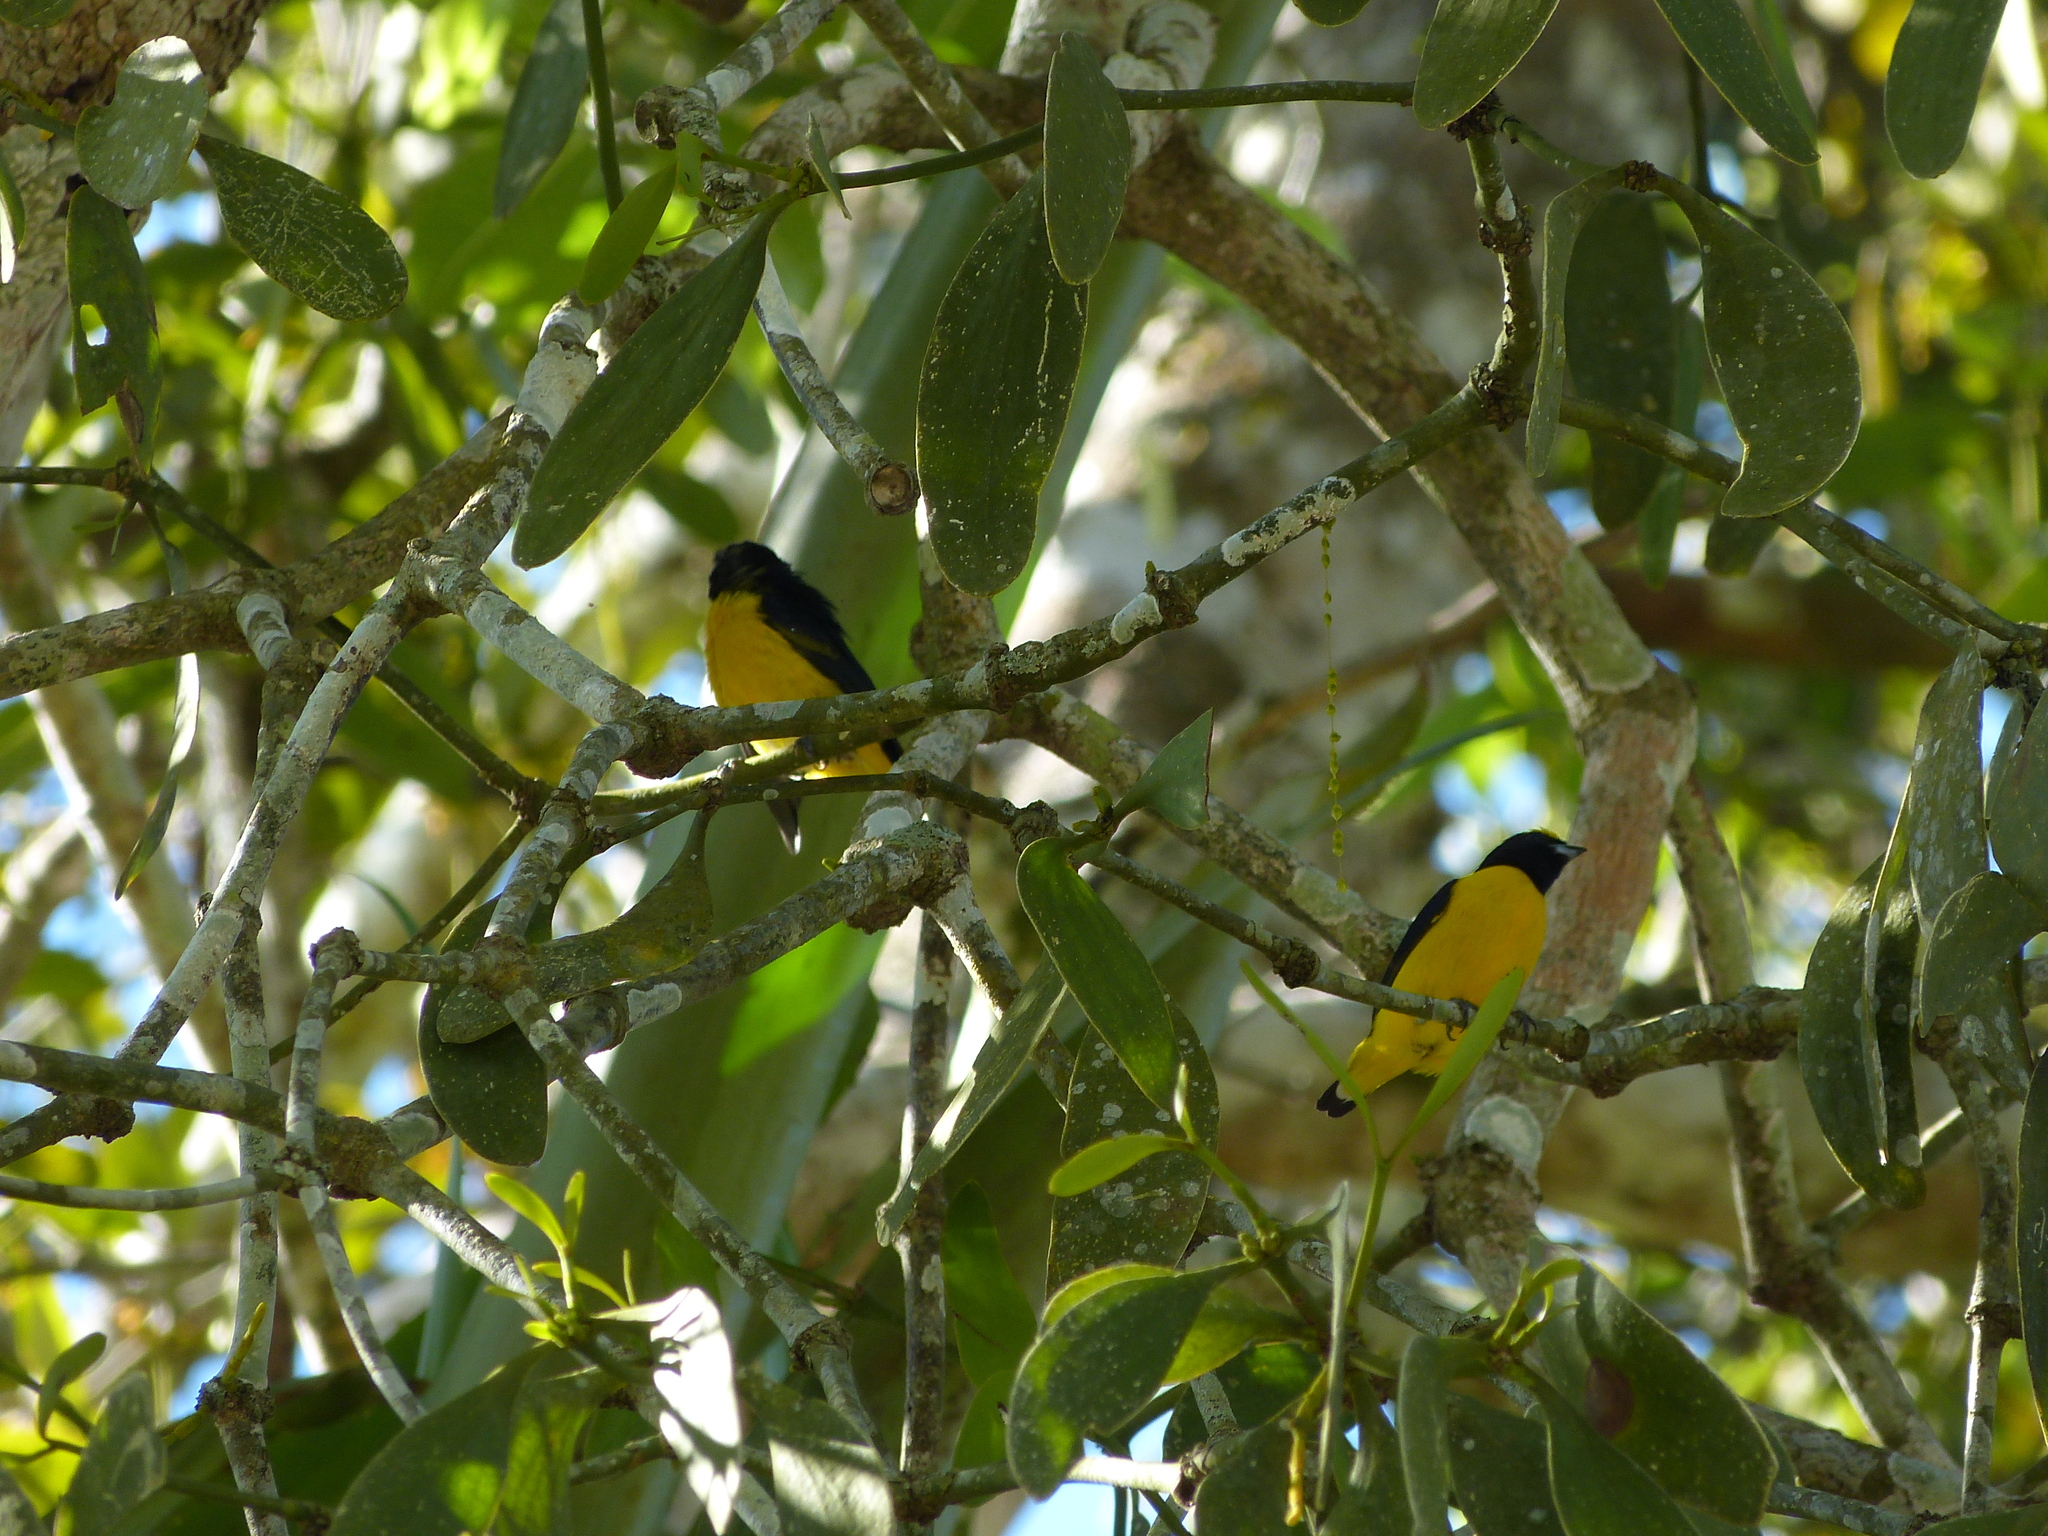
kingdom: Animalia
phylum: Chordata
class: Aves
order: Passeriformes
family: Fringillidae
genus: Euphonia
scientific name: Euphonia affinis
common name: Scrub euphonia
